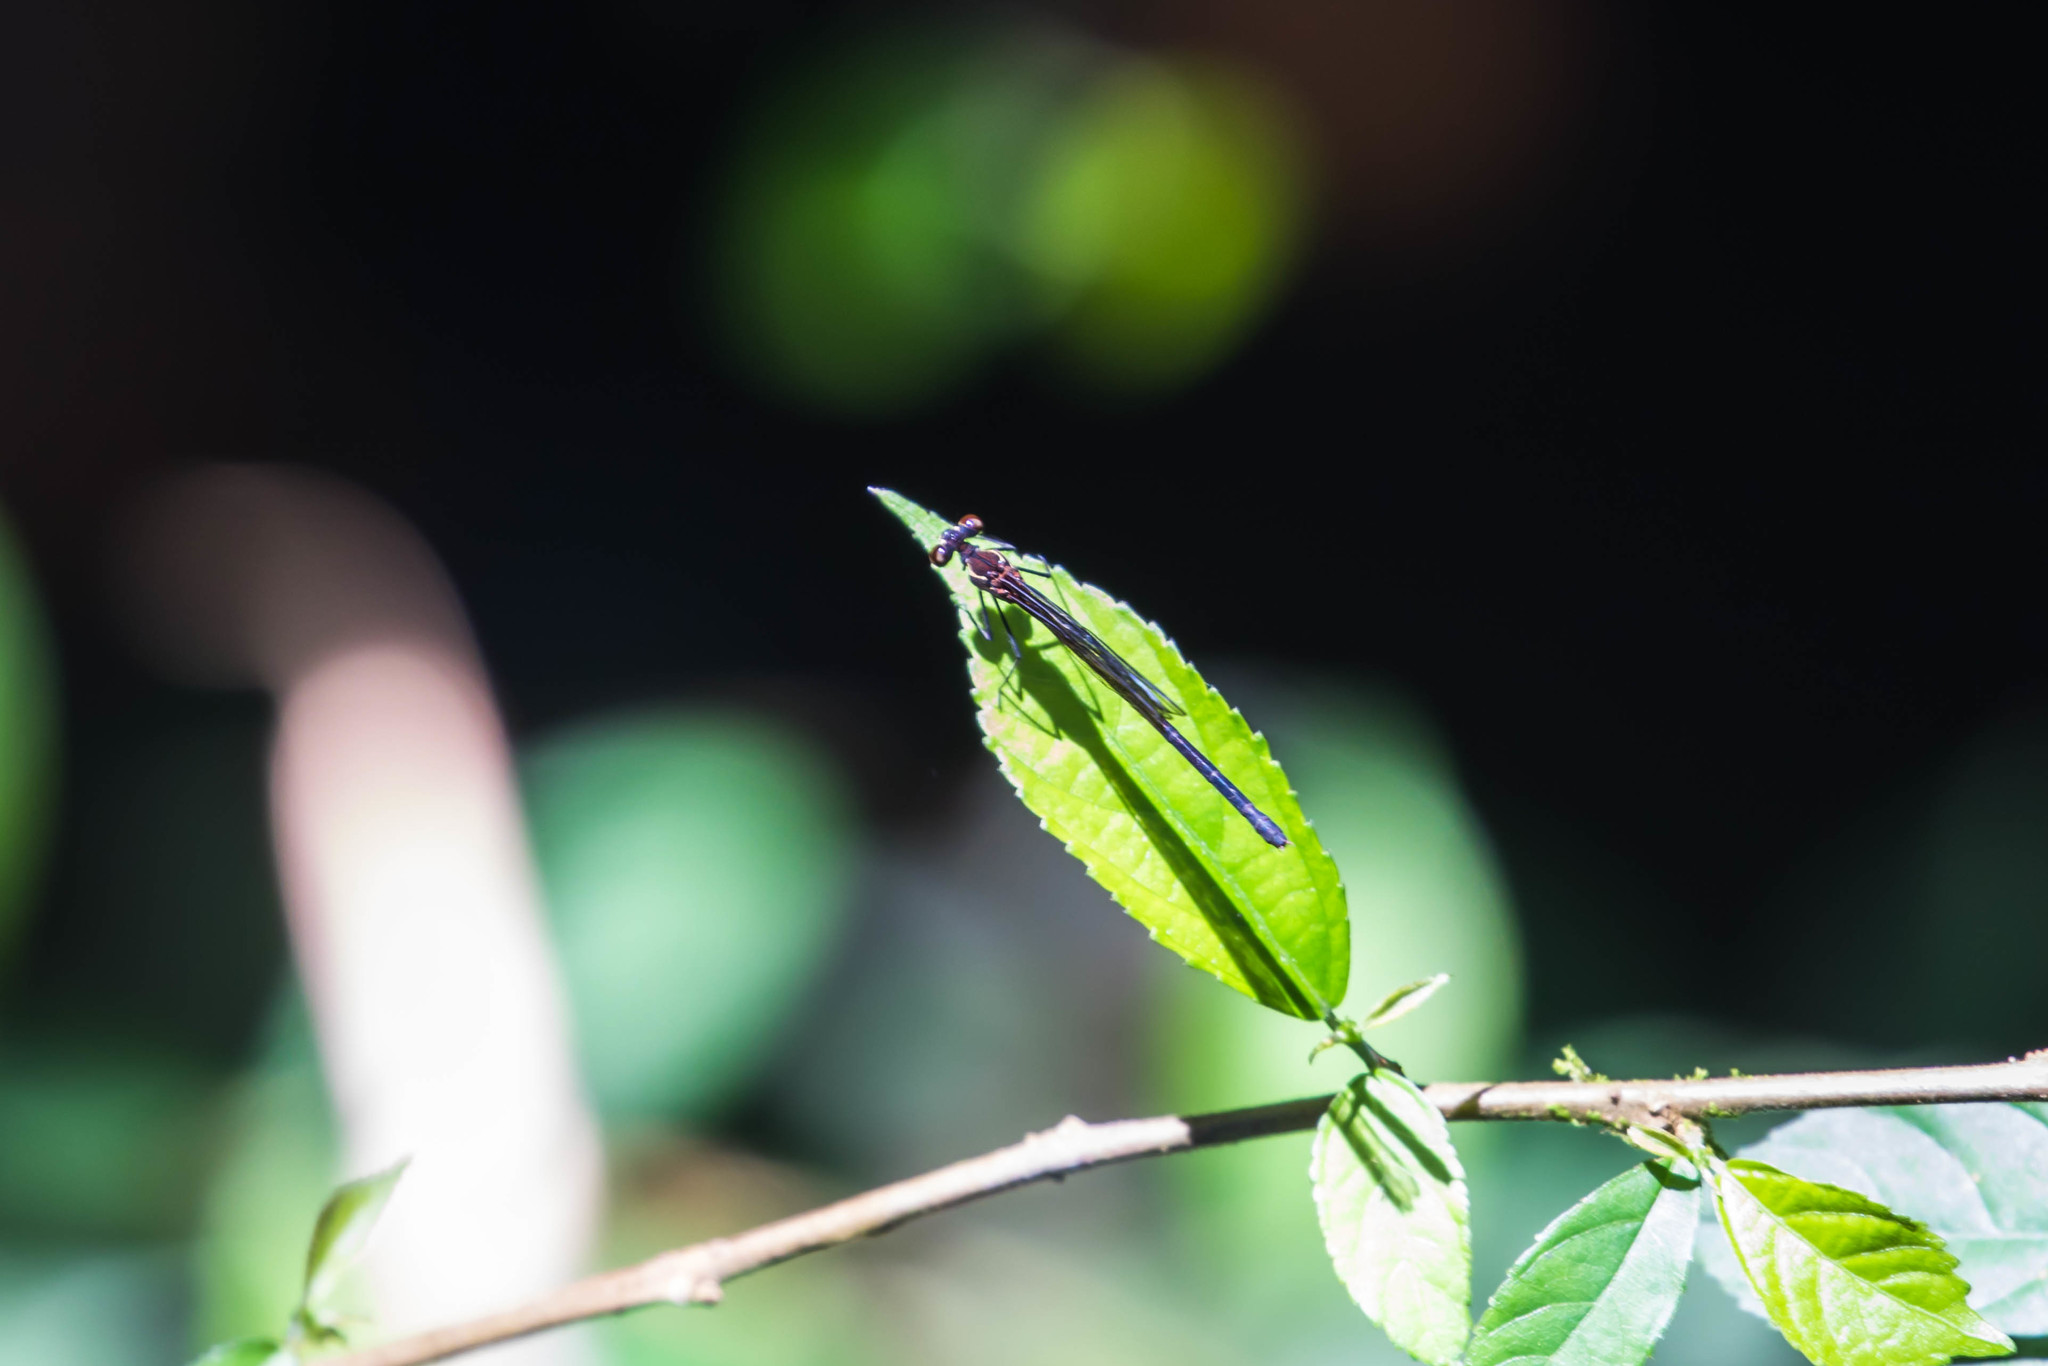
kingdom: Animalia
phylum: Arthropoda
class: Insecta
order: Odonata
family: Calopterygidae
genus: Hetaerina
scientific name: Hetaerina miniata
